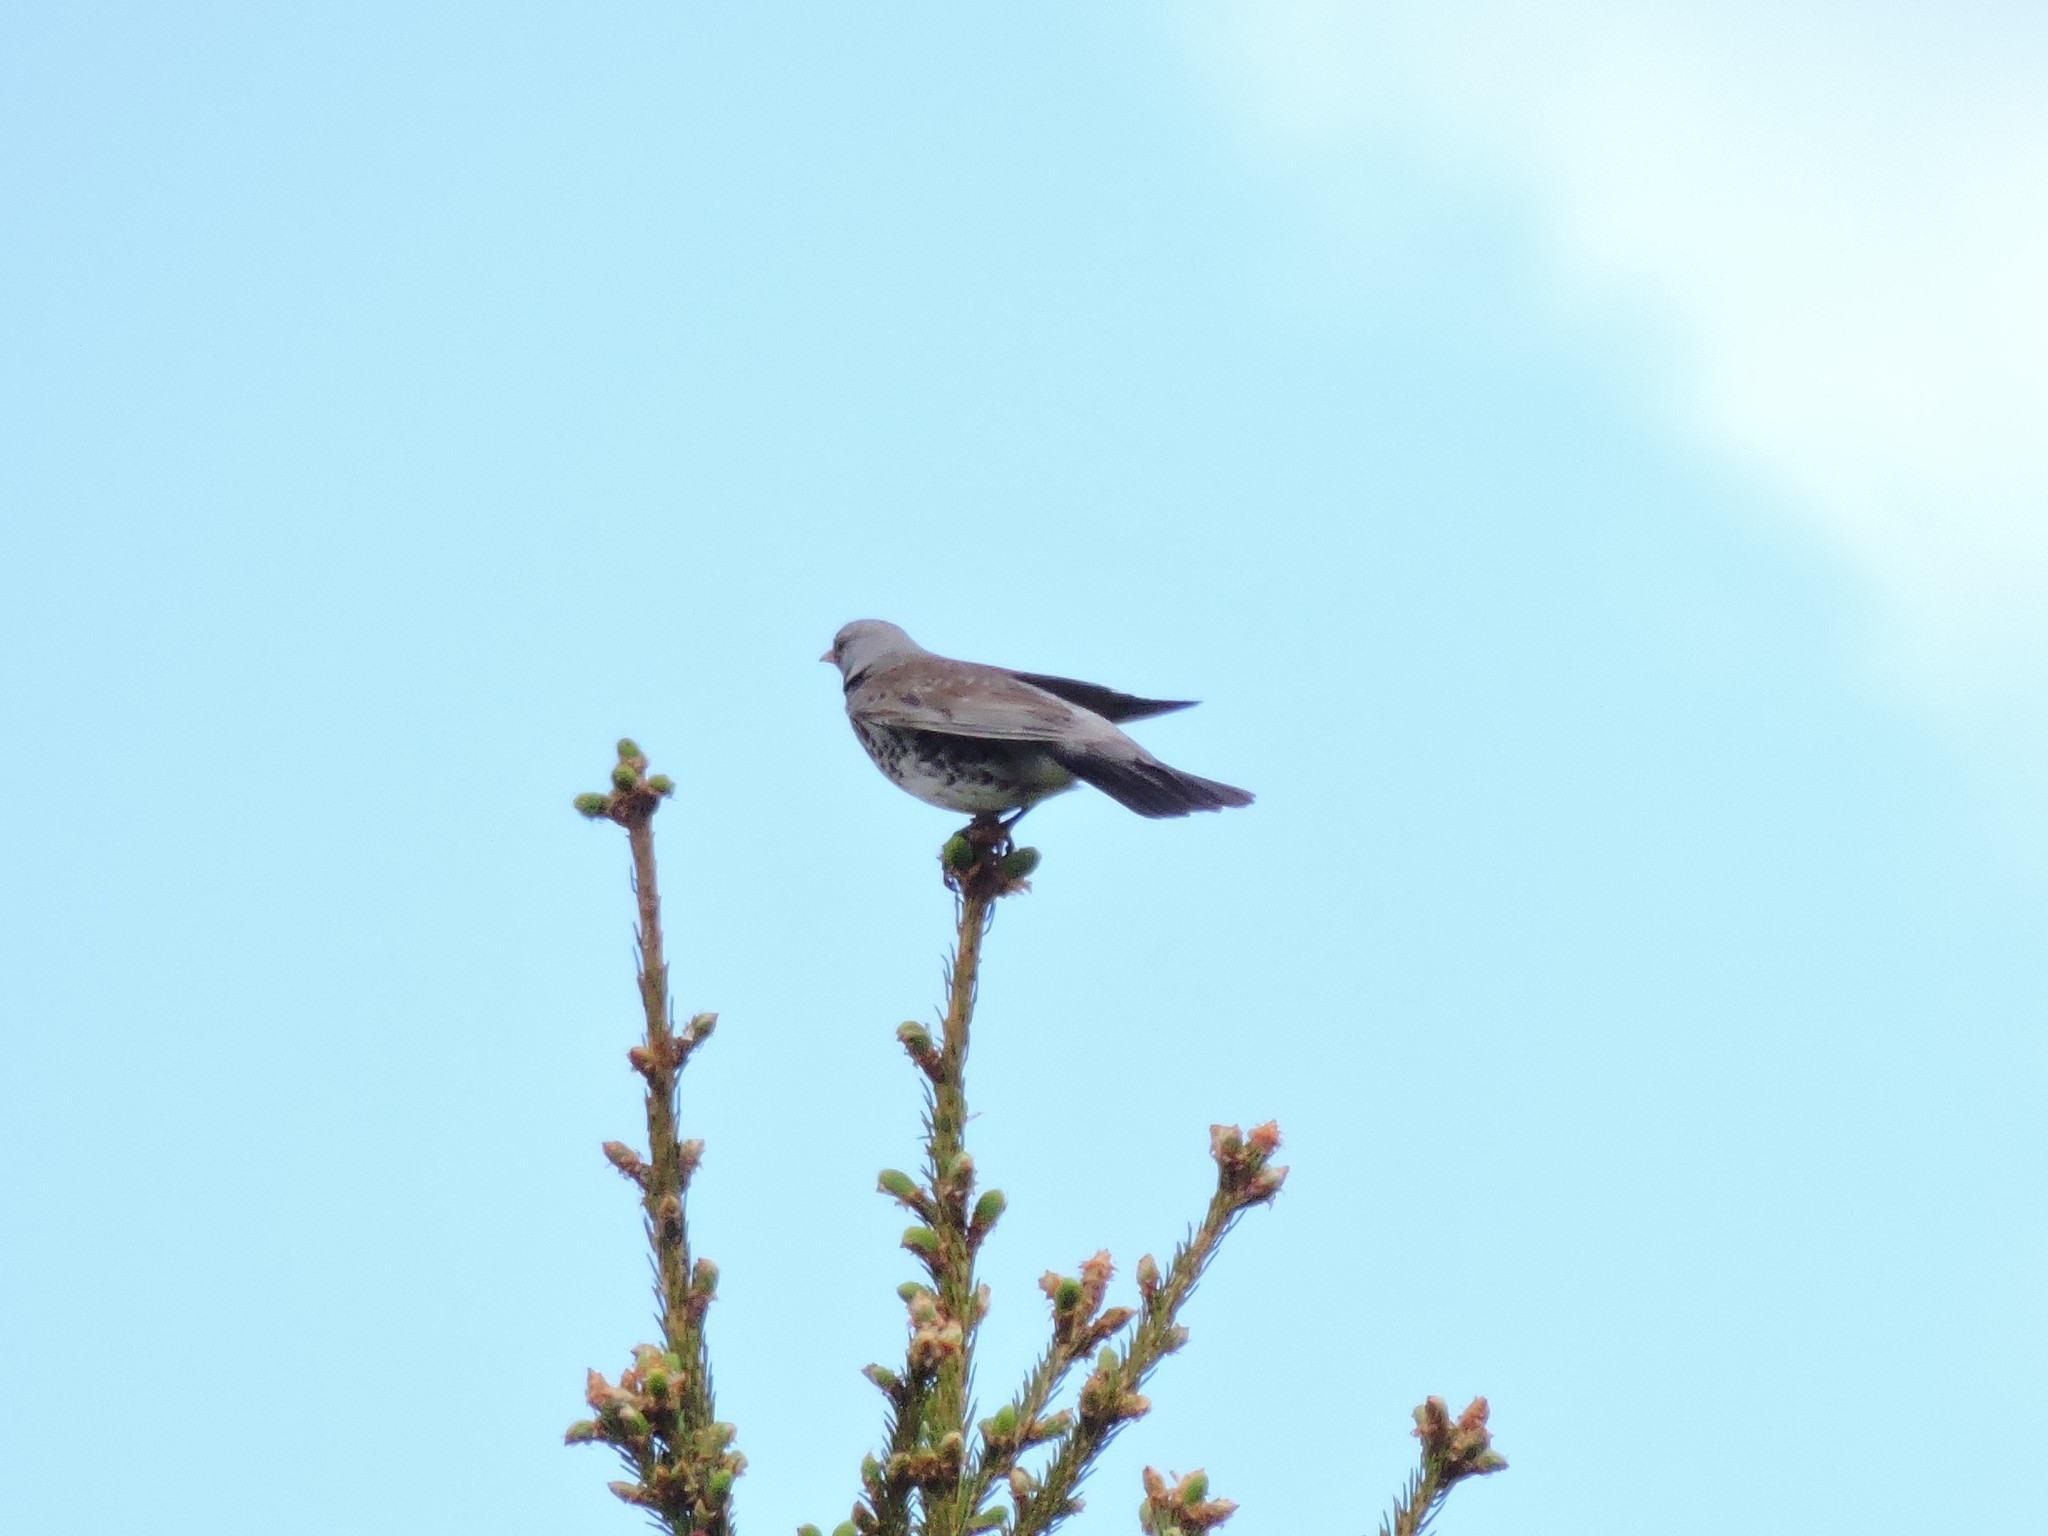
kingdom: Animalia
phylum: Chordata
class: Aves
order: Passeriformes
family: Turdidae
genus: Turdus
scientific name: Turdus pilaris
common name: Fieldfare
